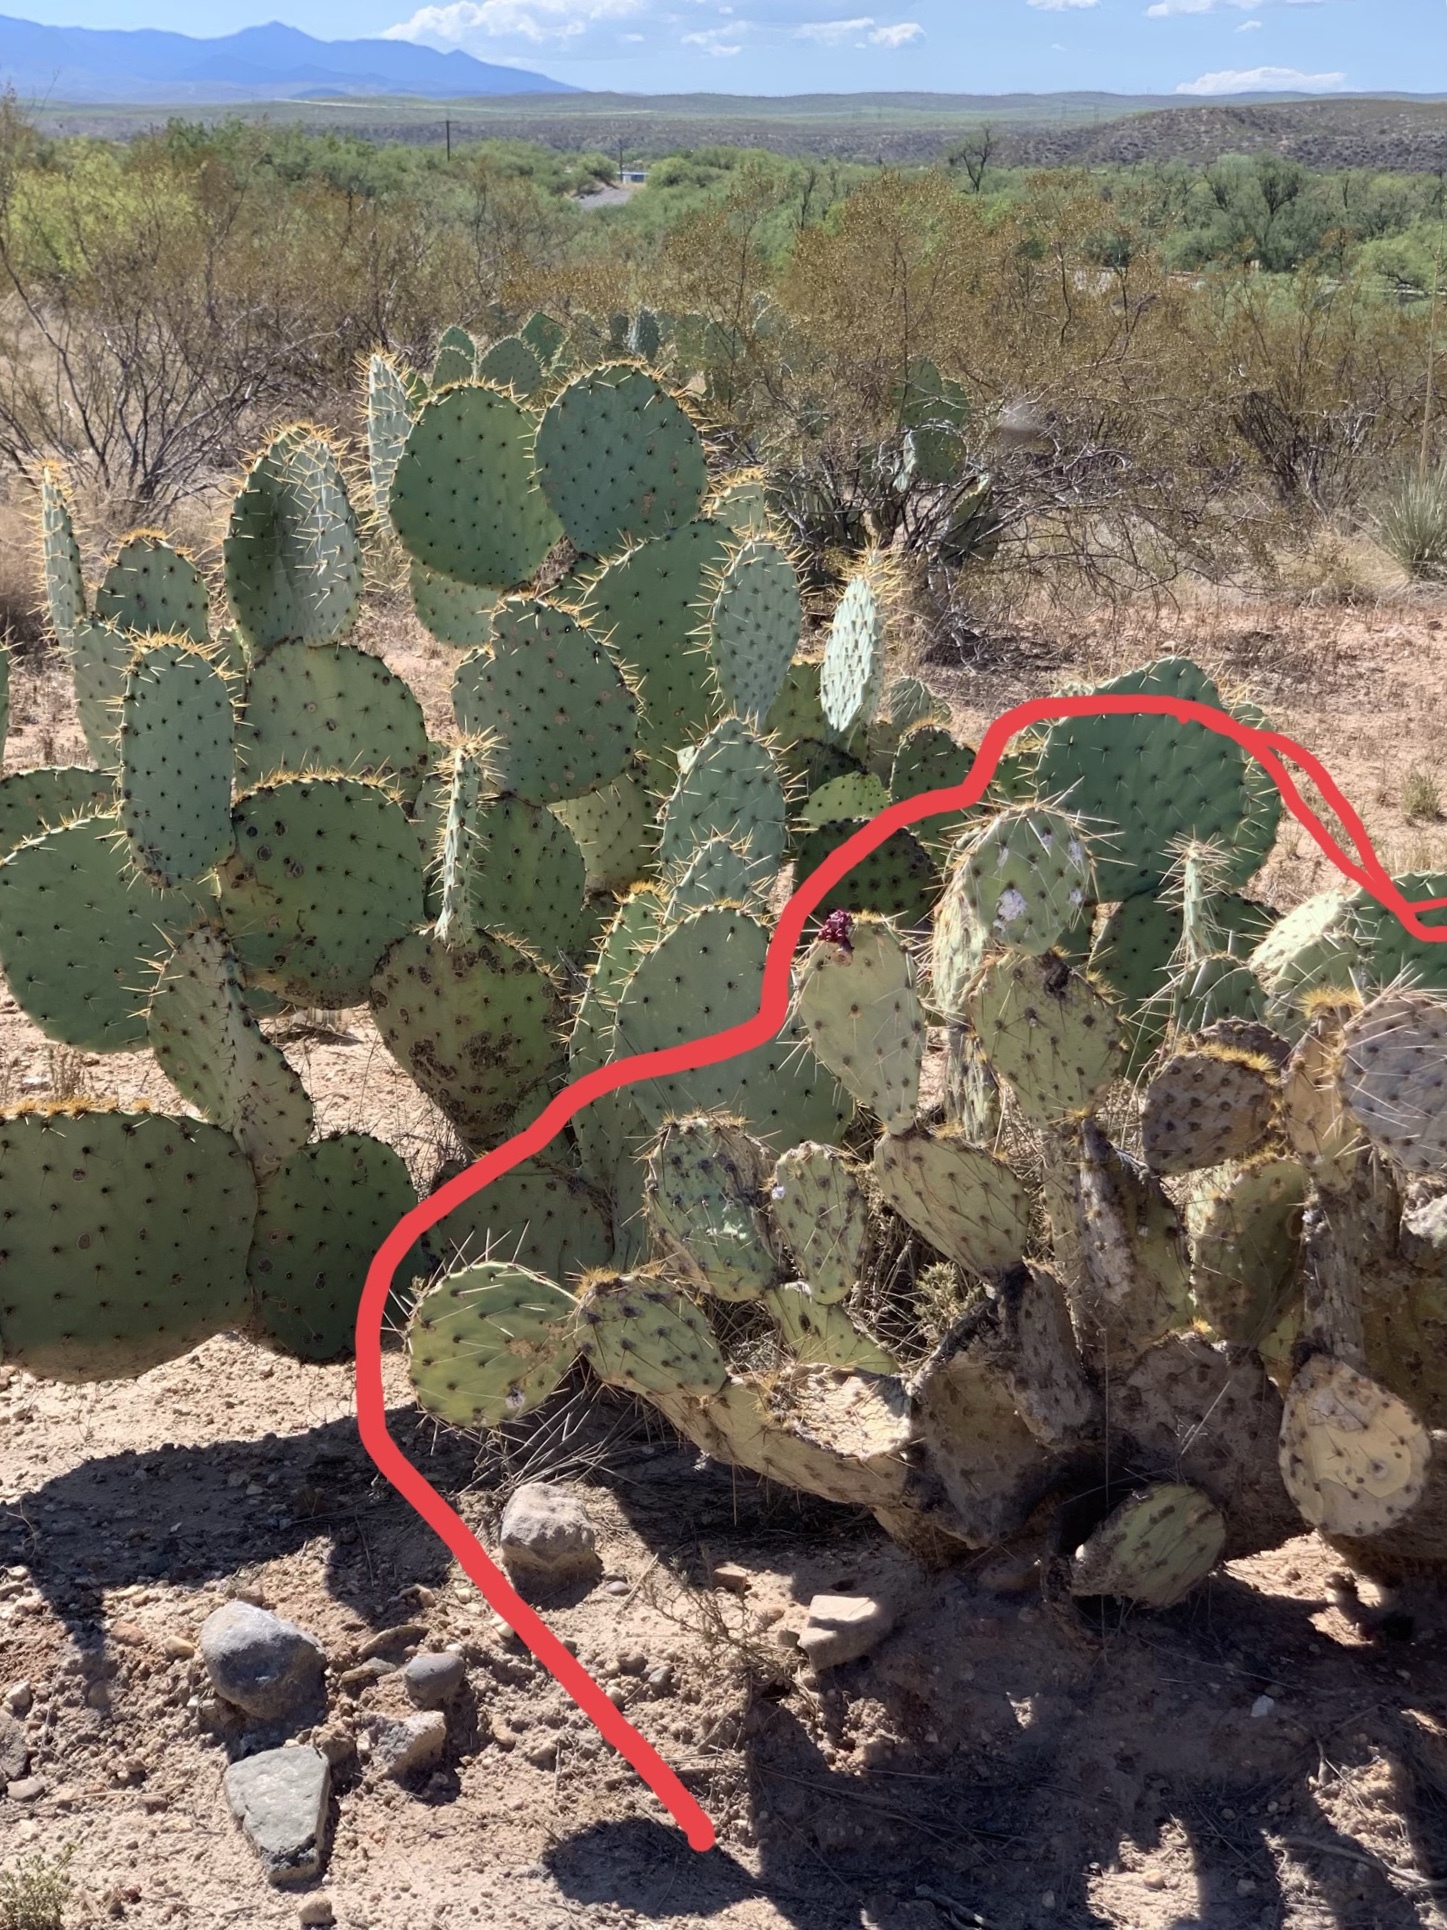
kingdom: Plantae
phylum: Tracheophyta
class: Magnoliopsida
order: Caryophyllales
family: Cactaceae
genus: Opuntia
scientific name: Opuntia engelmannii
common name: Cactus-apple
